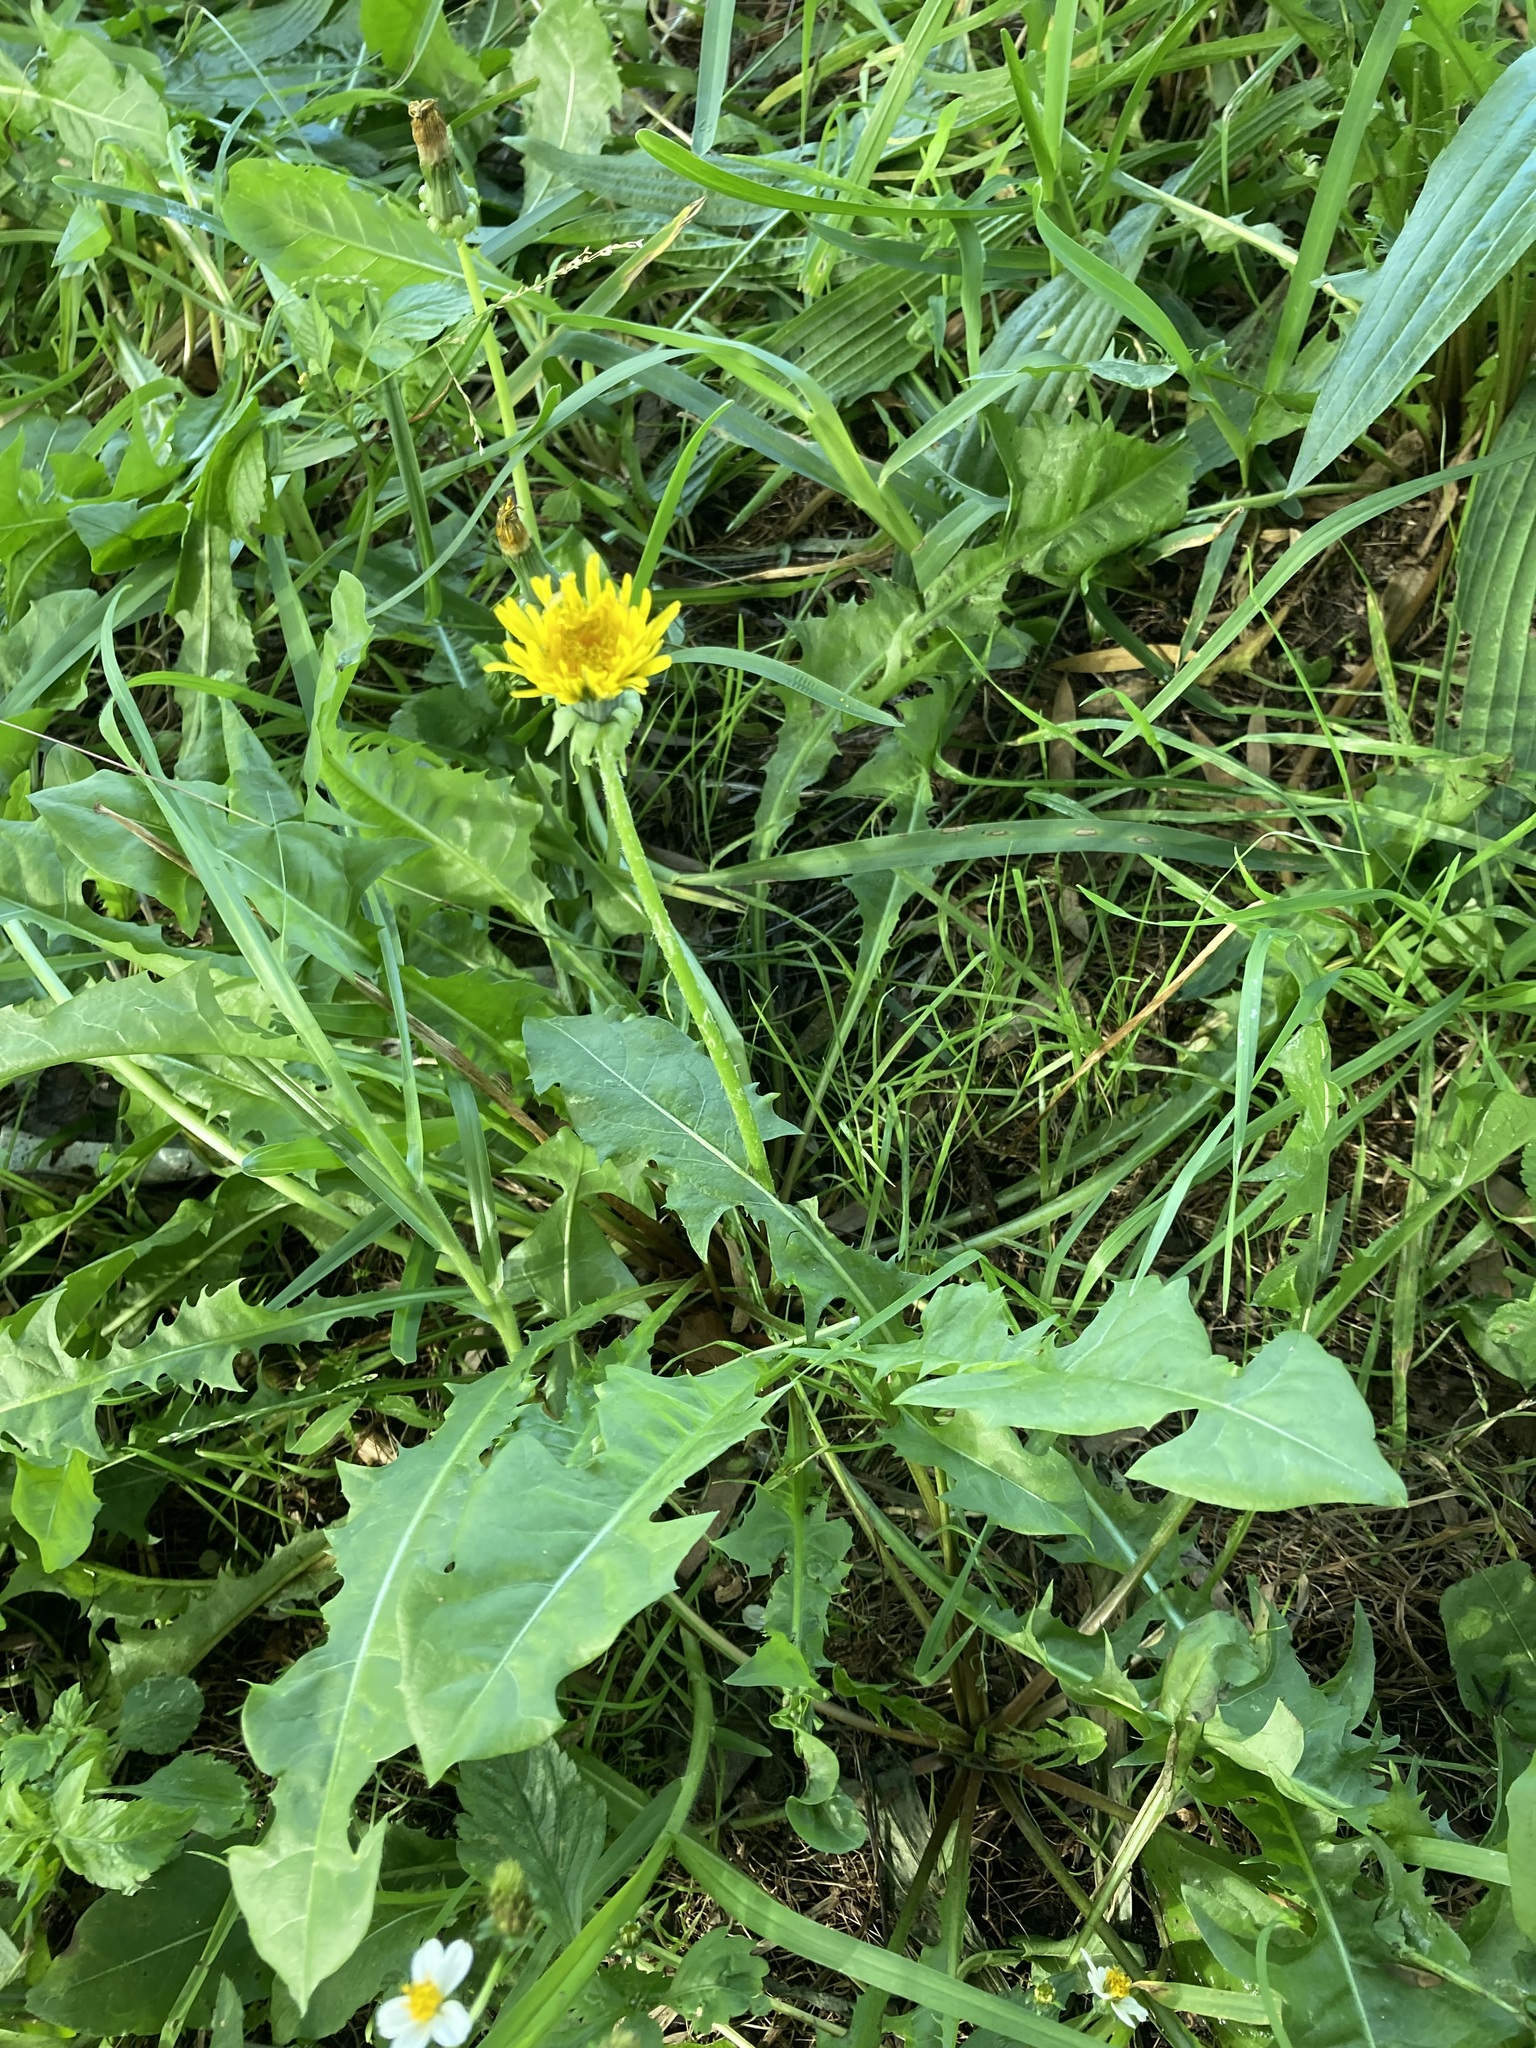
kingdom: Plantae
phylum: Tracheophyta
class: Magnoliopsida
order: Asterales
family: Asteraceae
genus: Taraxacum
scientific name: Taraxacum officinale
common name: Common dandelion
